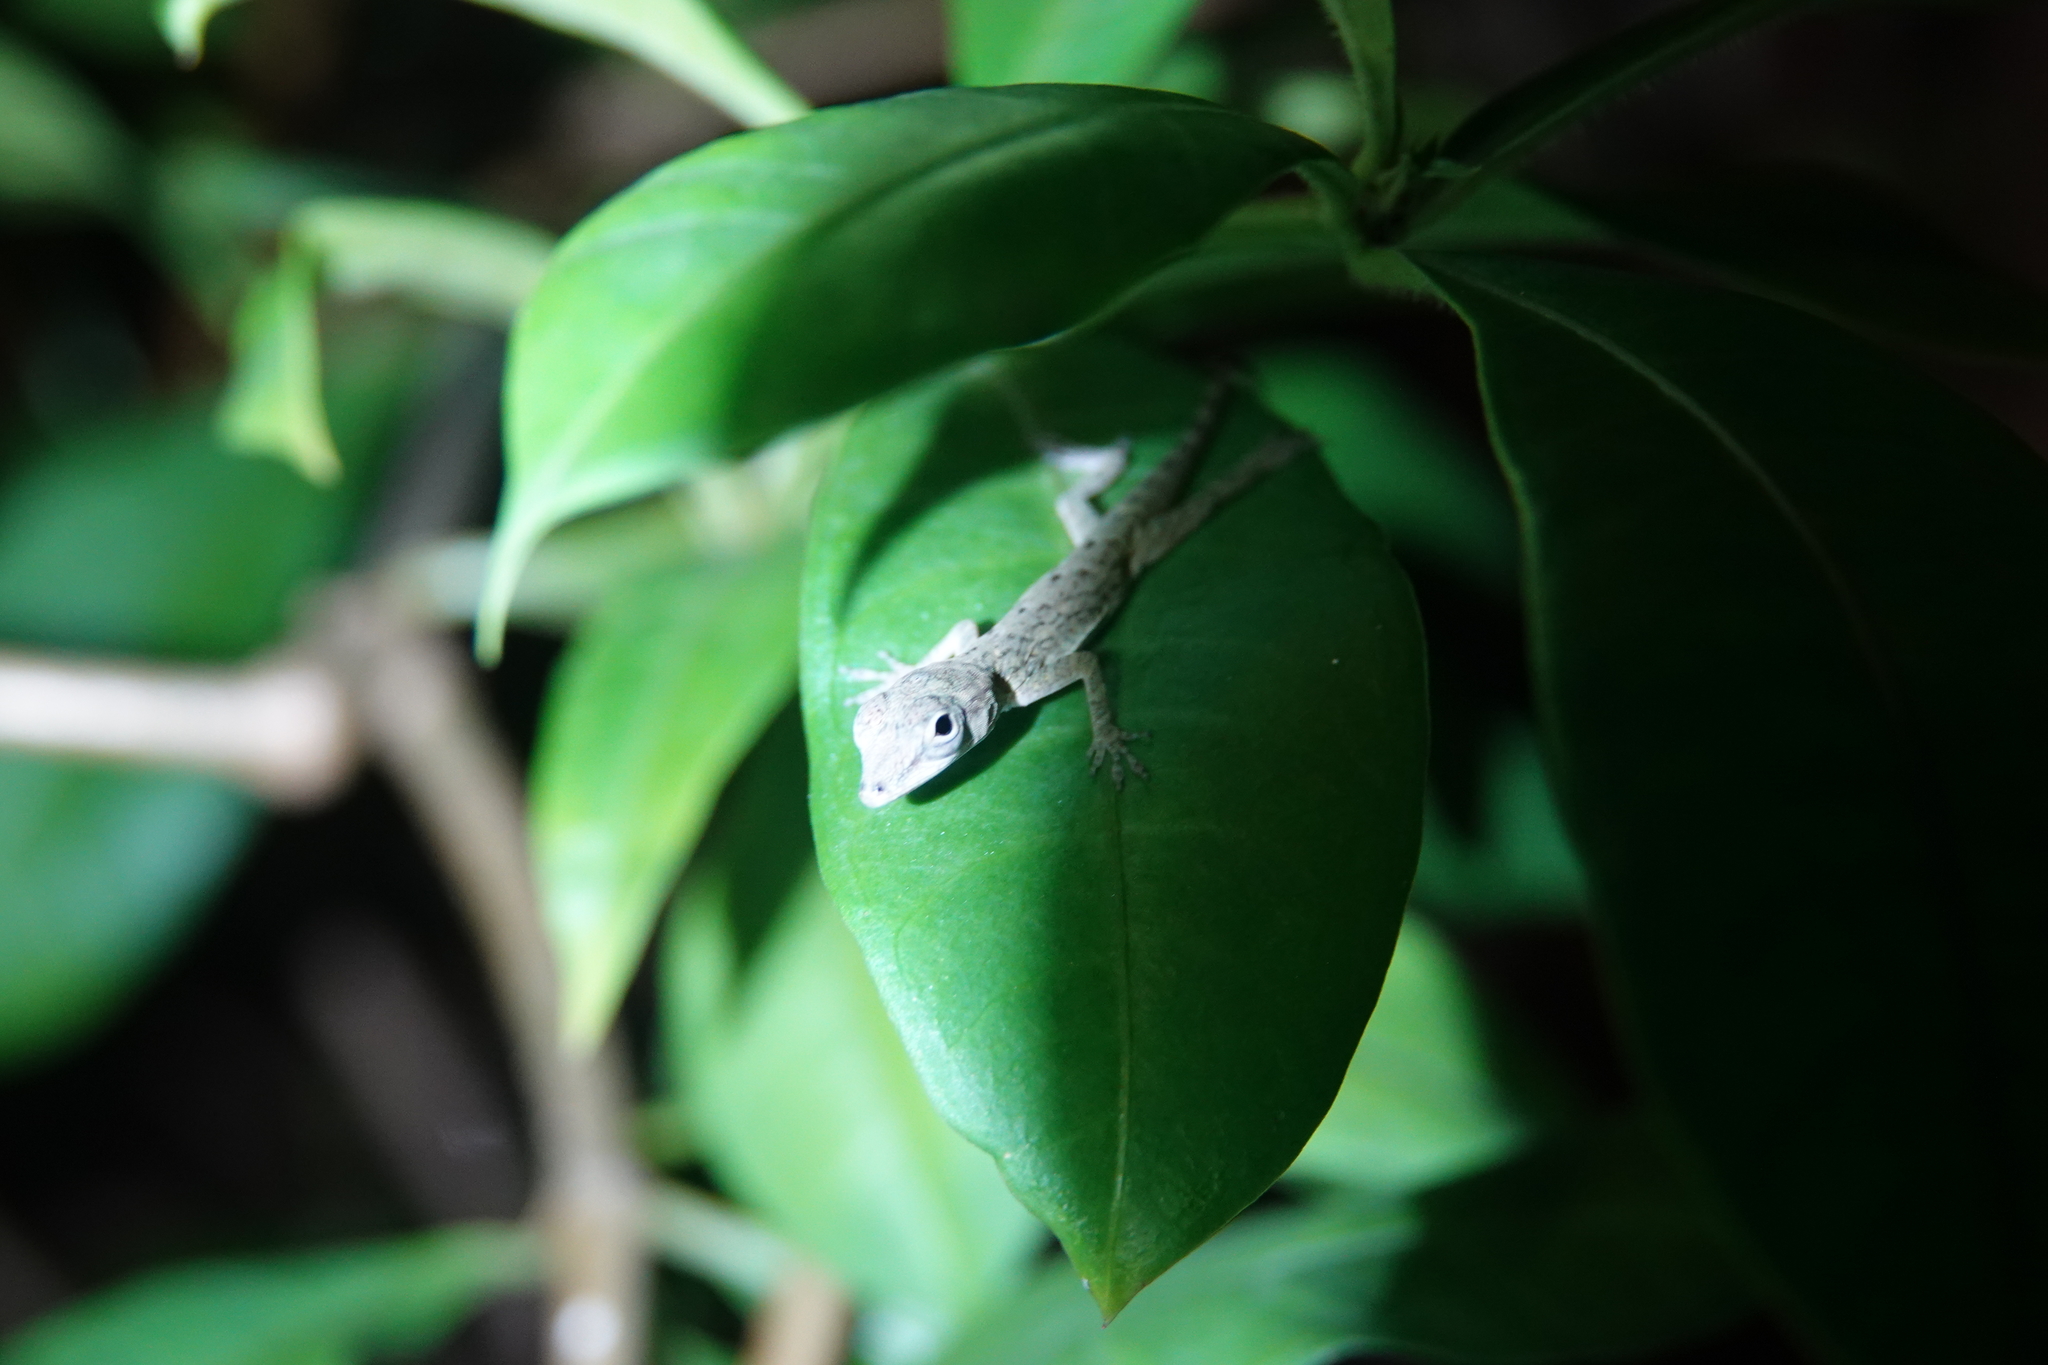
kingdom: Animalia
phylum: Chordata
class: Squamata
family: Dactyloidae
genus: Anolis
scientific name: Anolis aeneus
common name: Bronze anole
